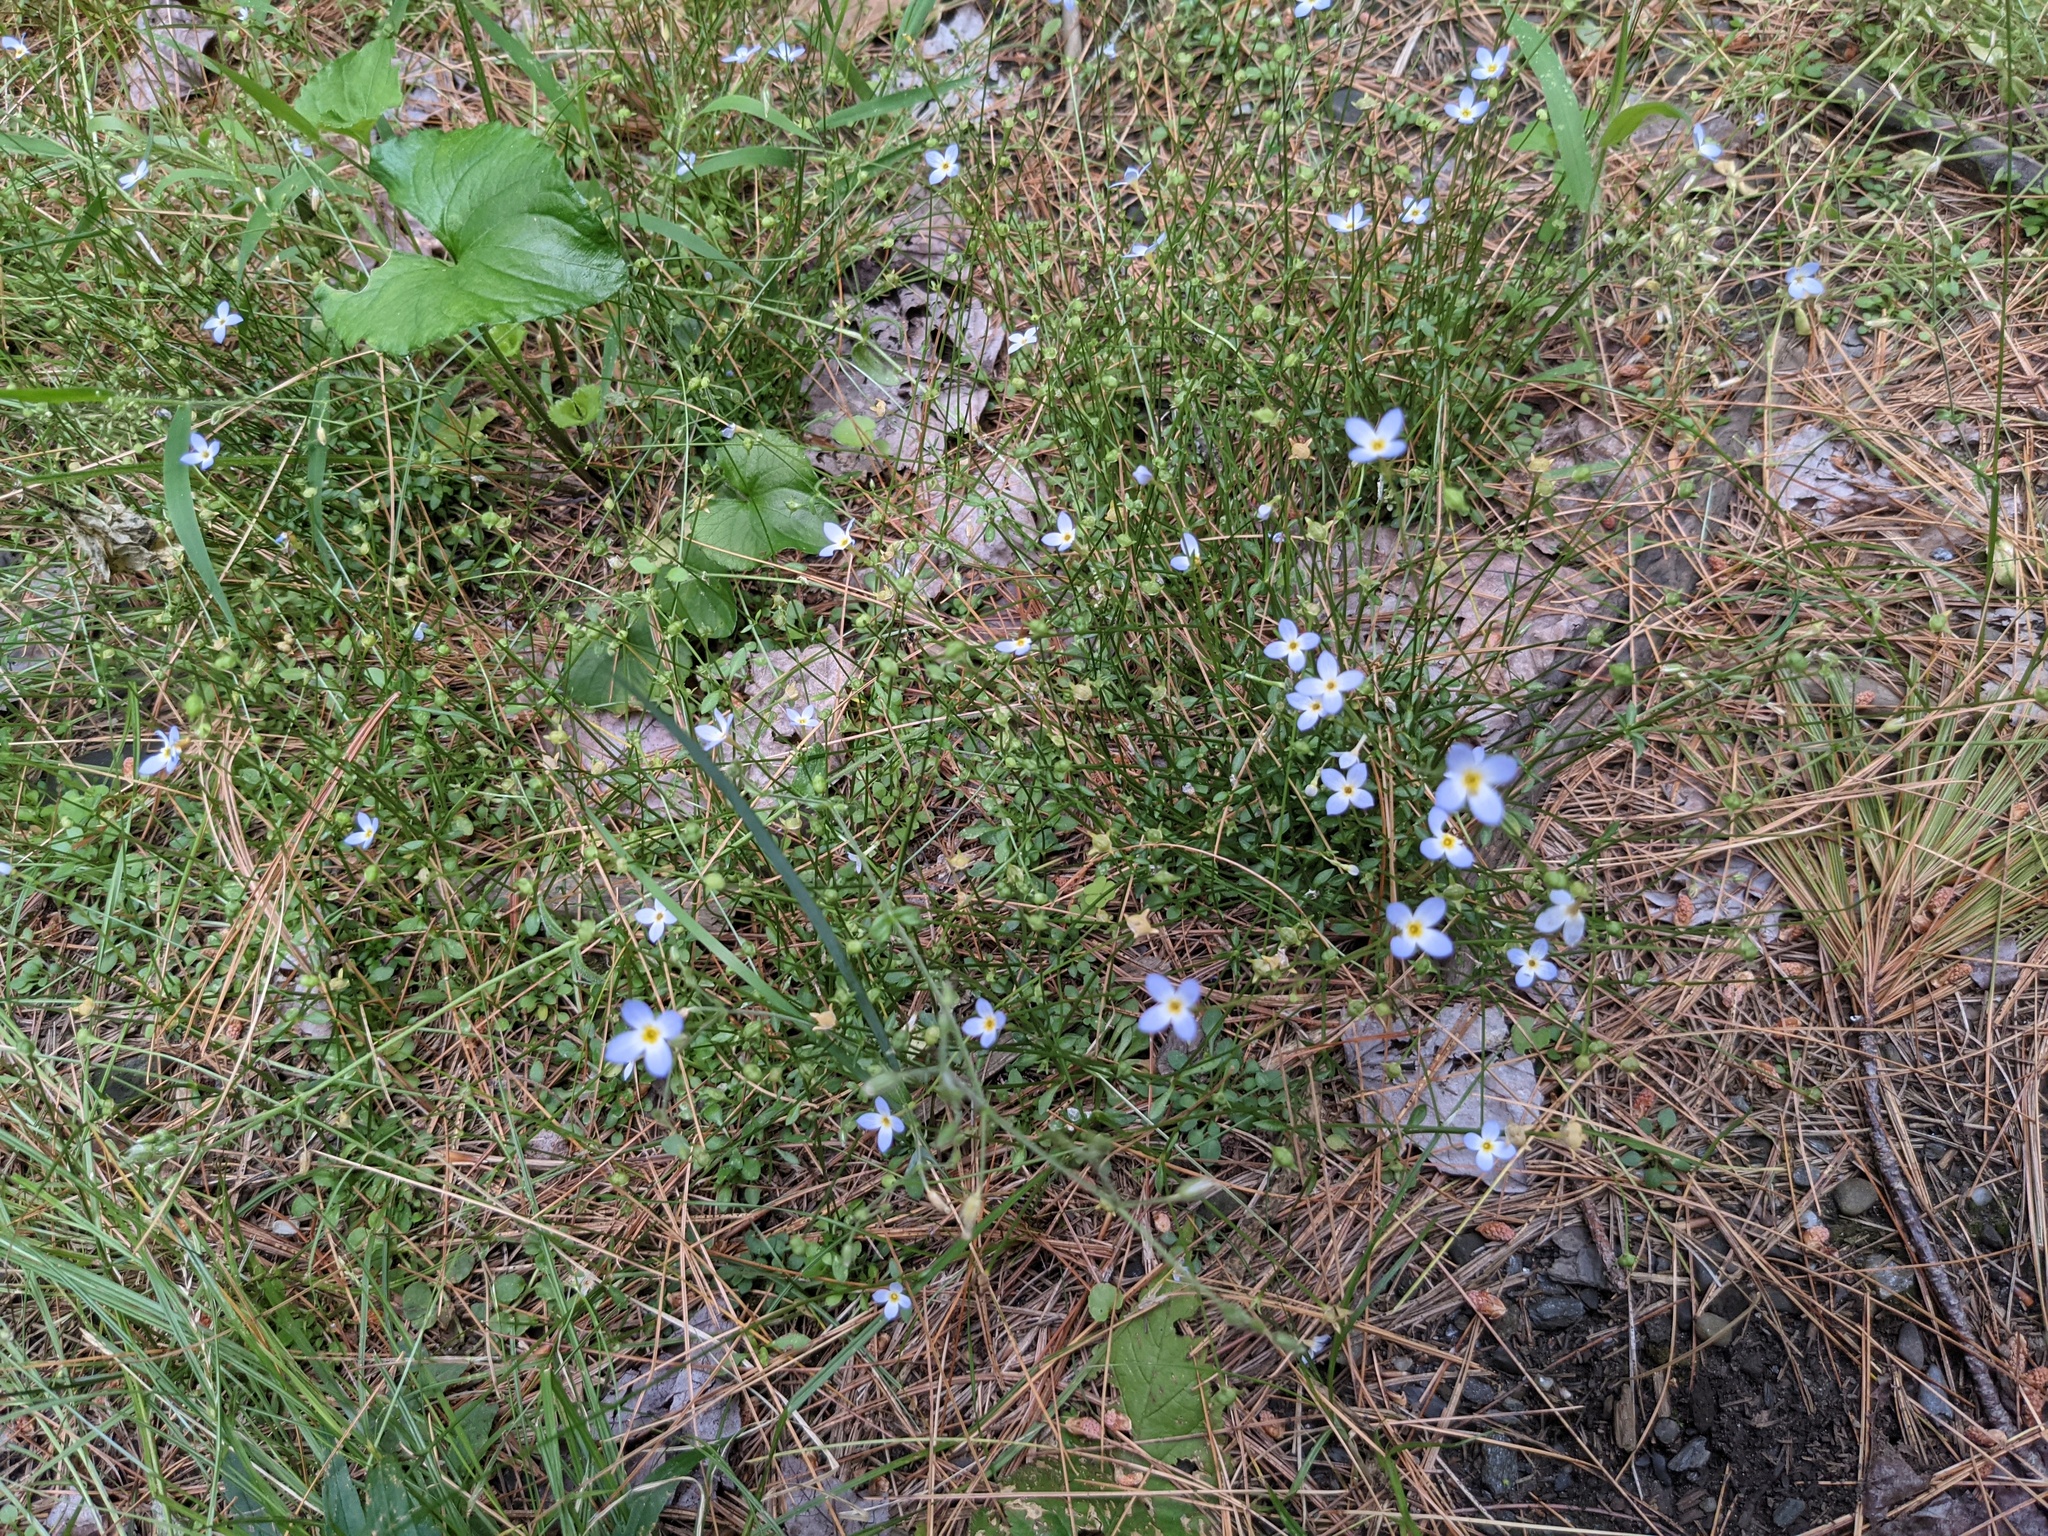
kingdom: Plantae
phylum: Tracheophyta
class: Magnoliopsida
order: Gentianales
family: Rubiaceae
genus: Houstonia
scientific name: Houstonia caerulea
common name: Bluets
